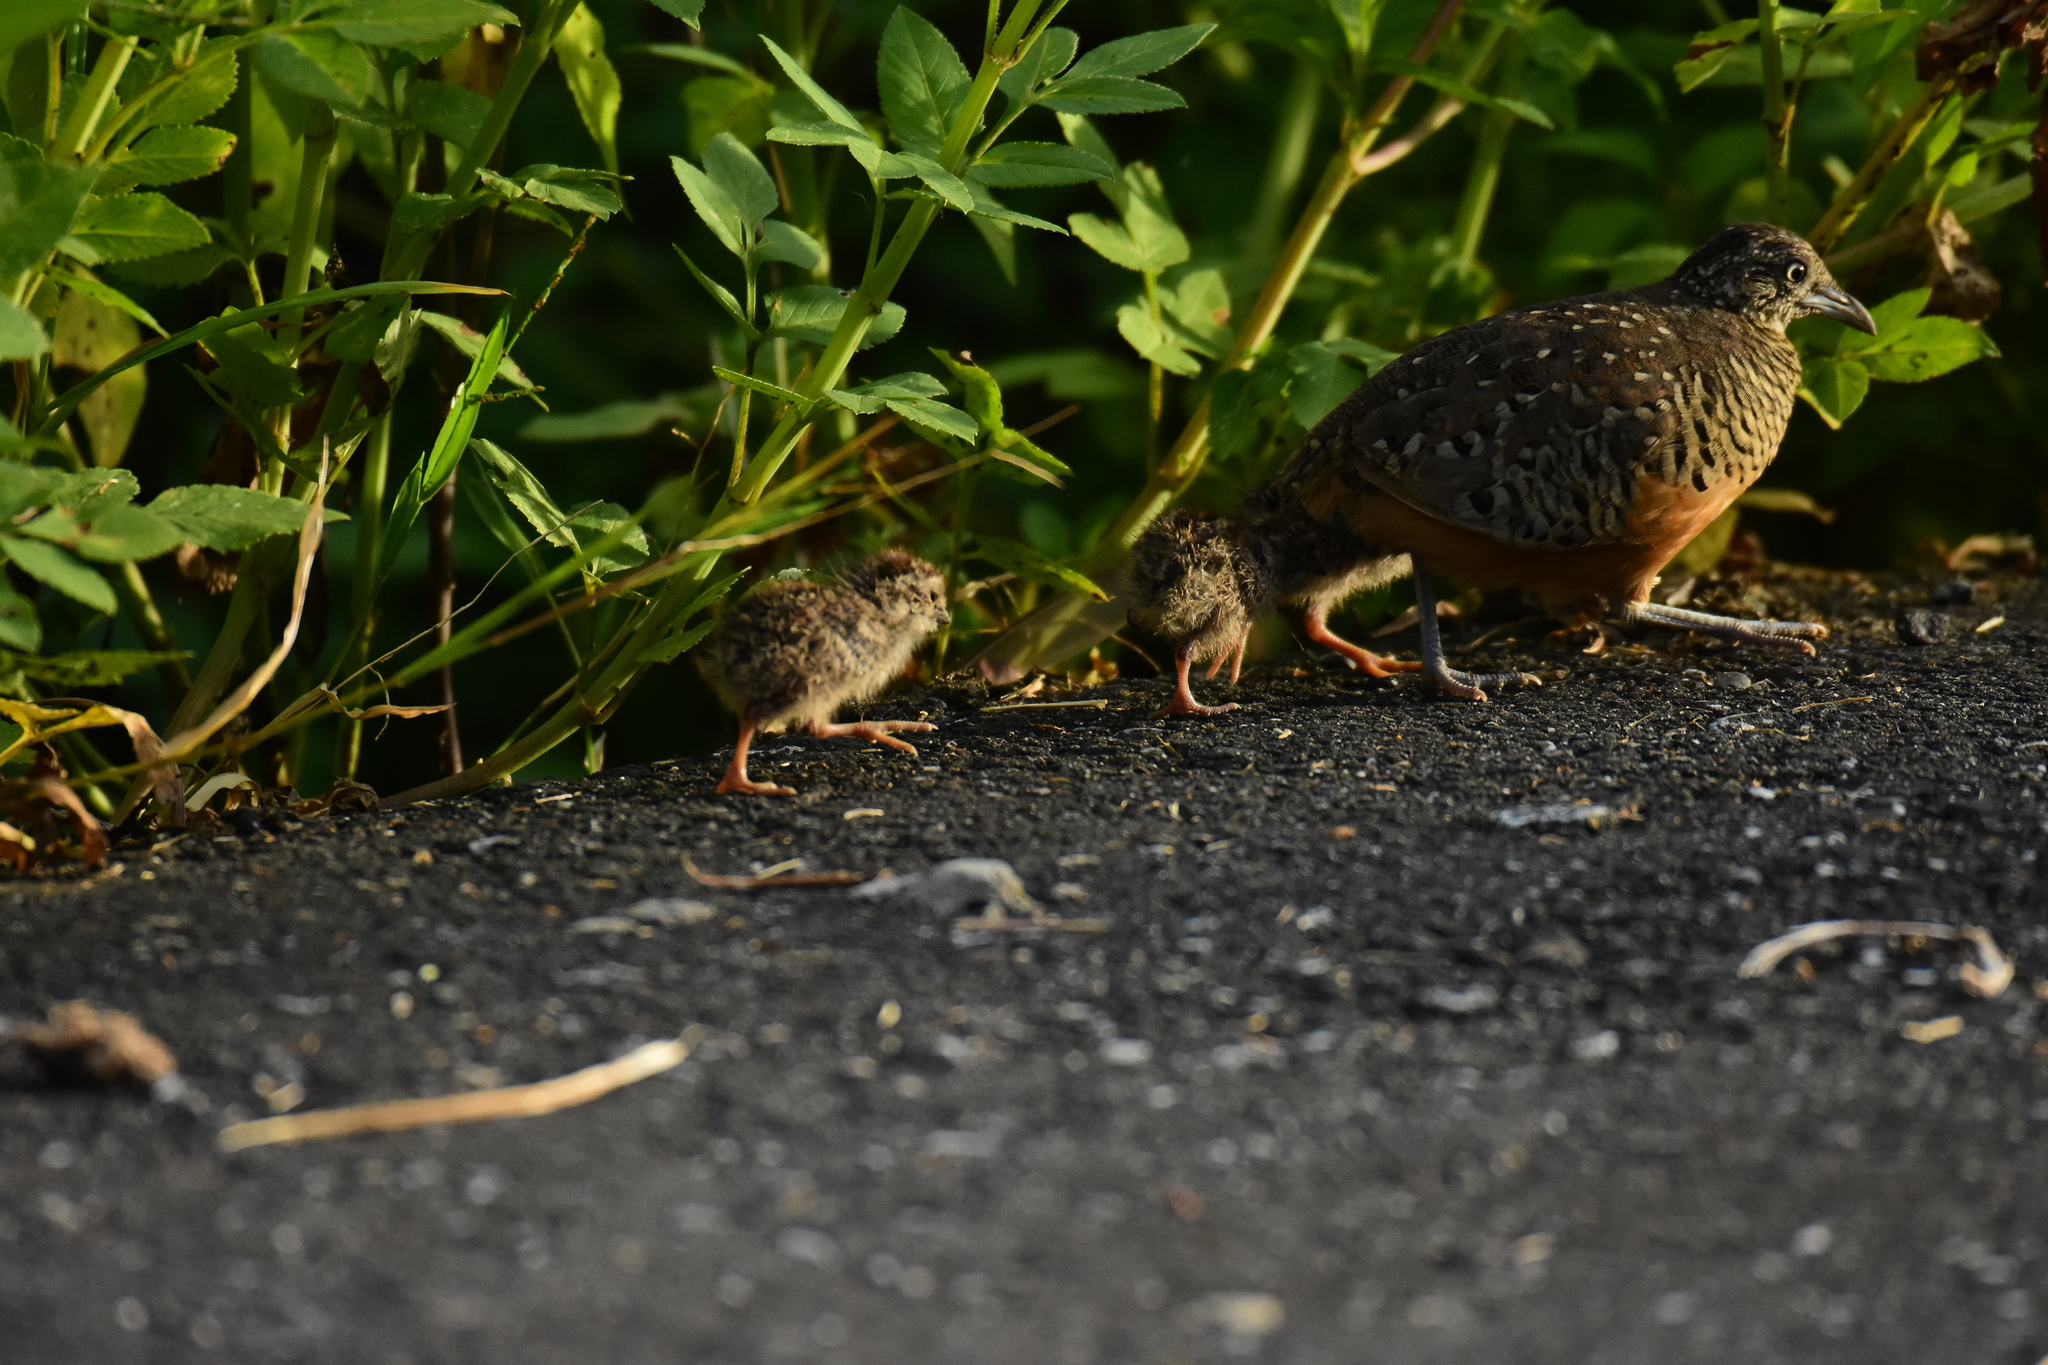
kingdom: Animalia
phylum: Chordata
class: Aves
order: Charadriiformes
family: Turnicidae
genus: Turnix
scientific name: Turnix suscitator
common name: Barred buttonquail
